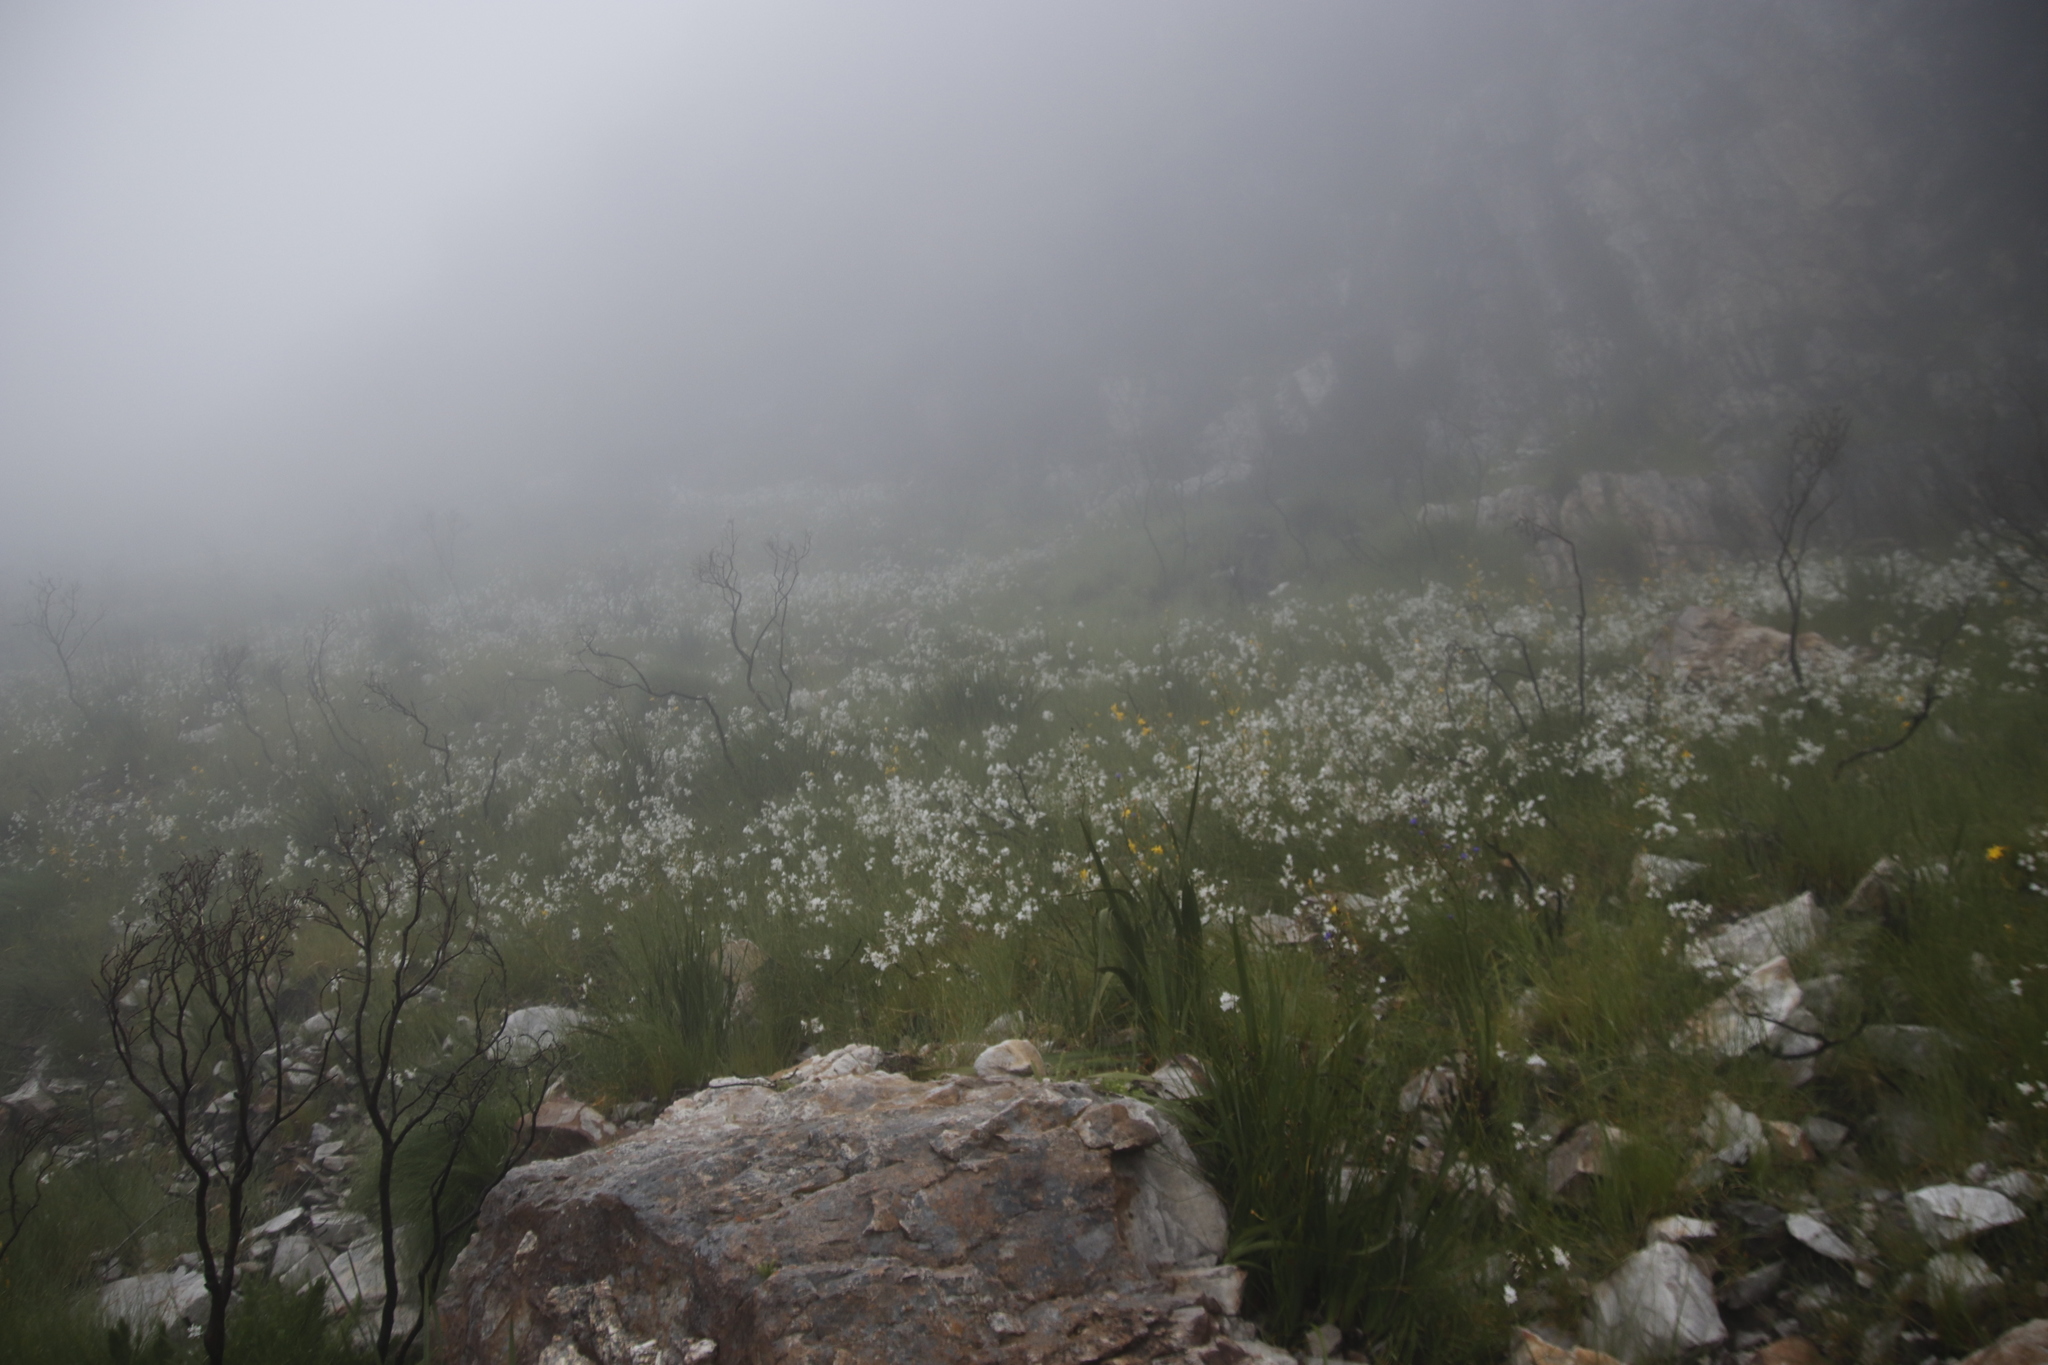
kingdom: Plantae
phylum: Tracheophyta
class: Liliopsida
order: Asparagales
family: Iridaceae
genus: Schizorhiza
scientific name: Schizorhiza neglecta
